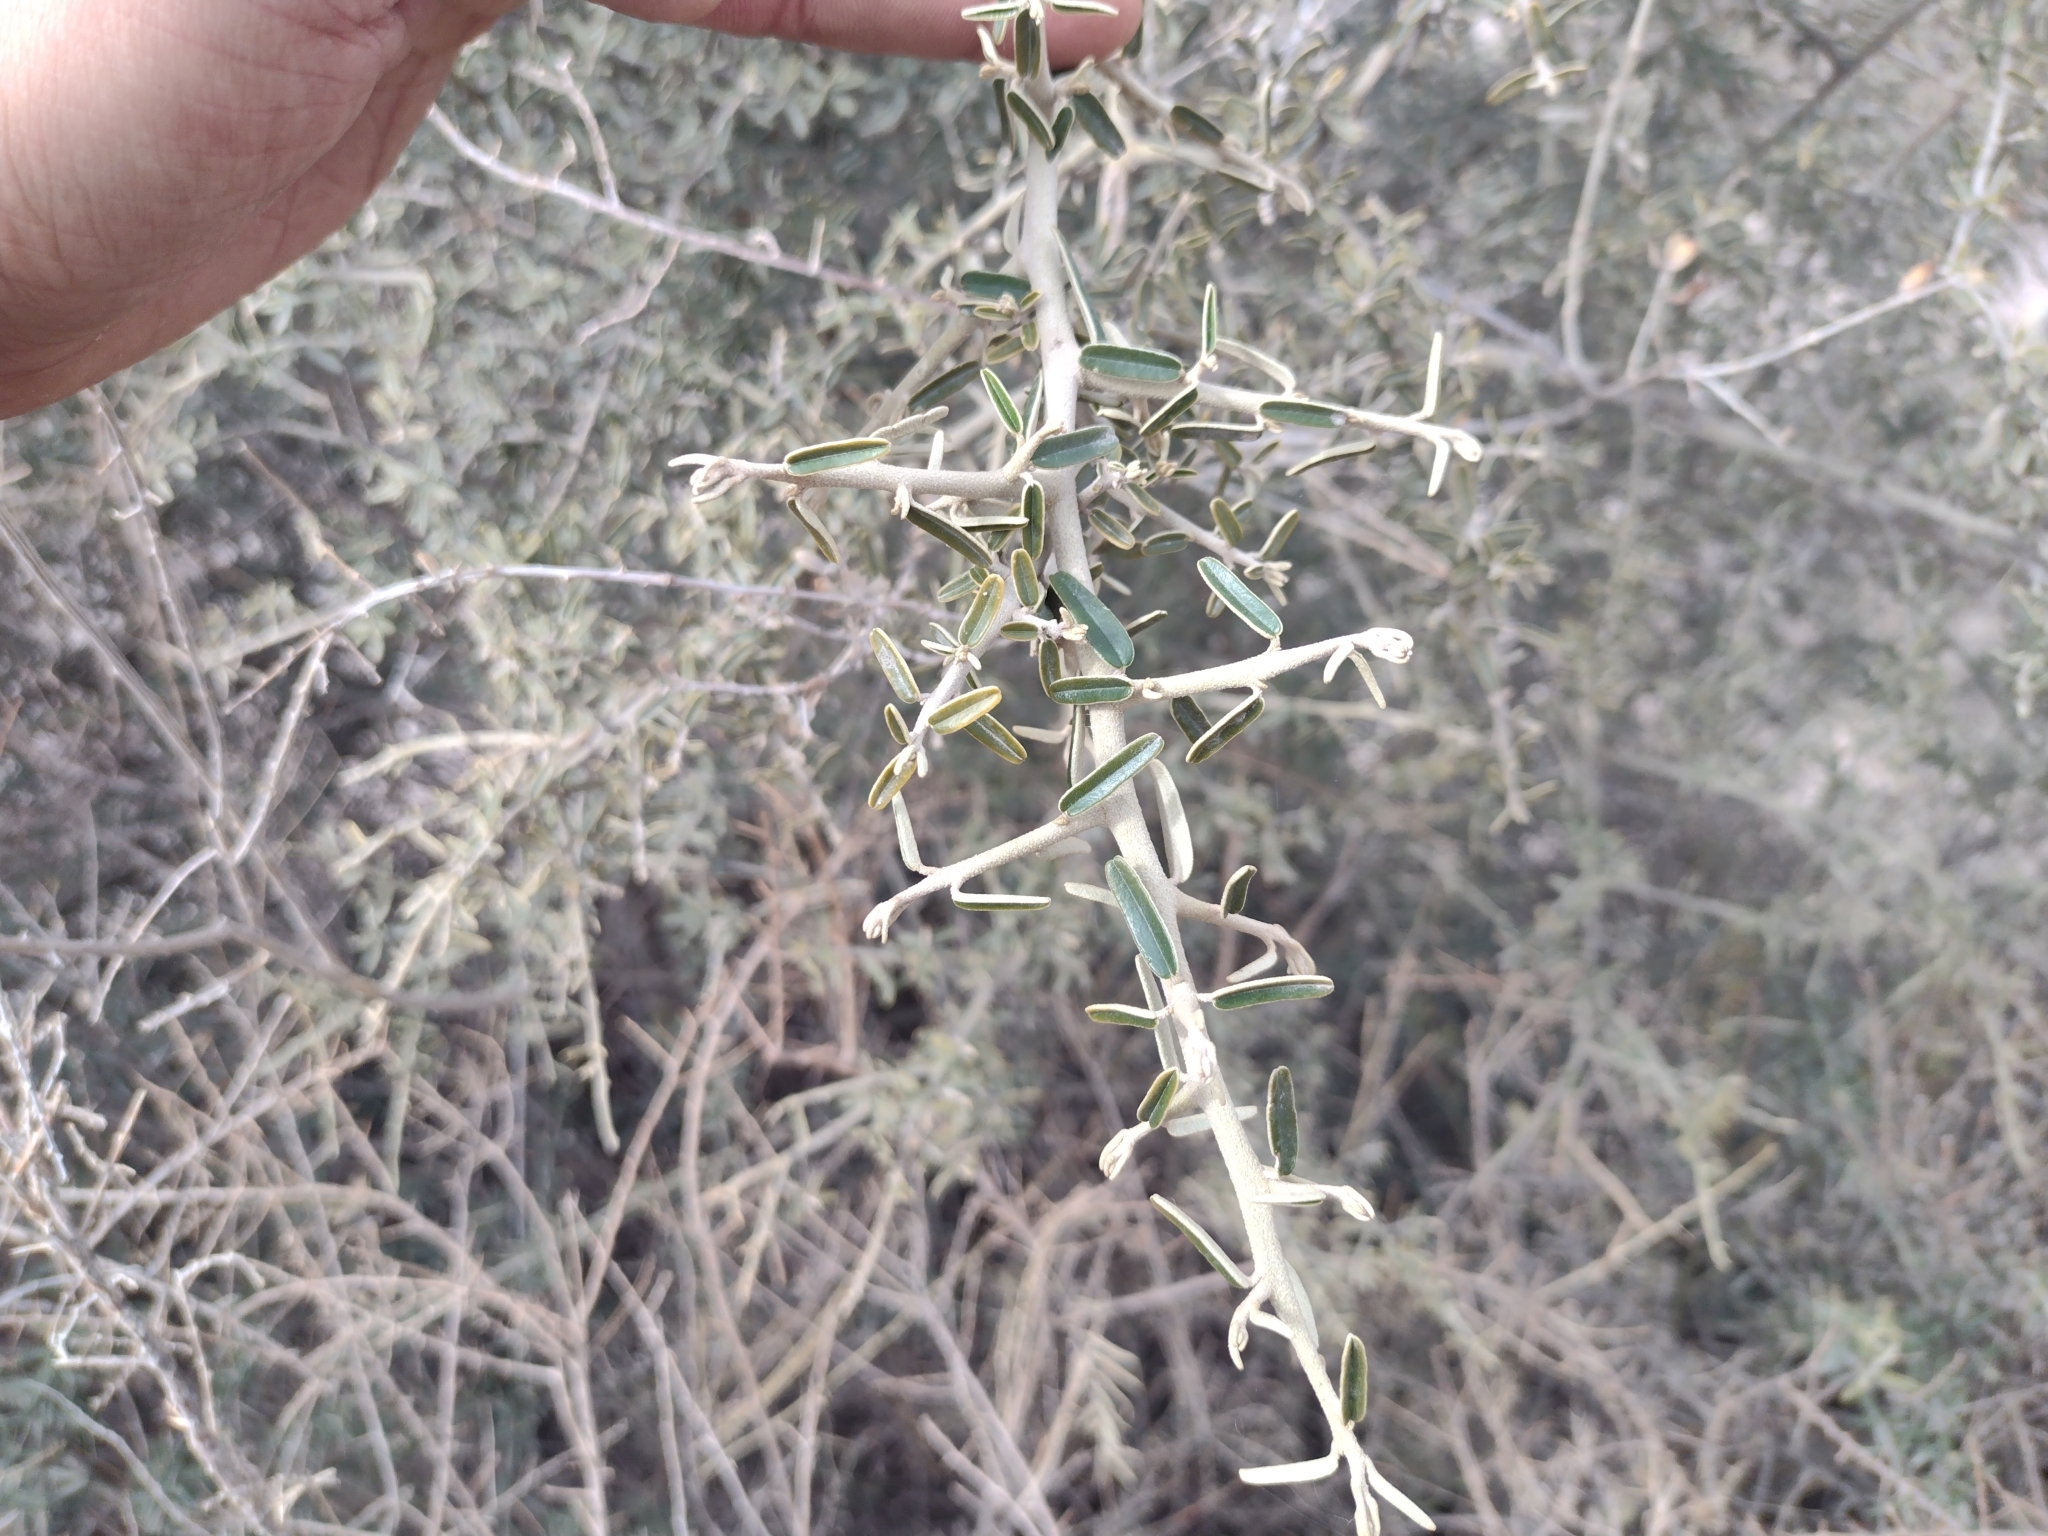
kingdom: Plantae
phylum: Tracheophyta
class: Magnoliopsida
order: Brassicales
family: Capparaceae
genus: Atamisquea
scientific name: Atamisquea emarginata
